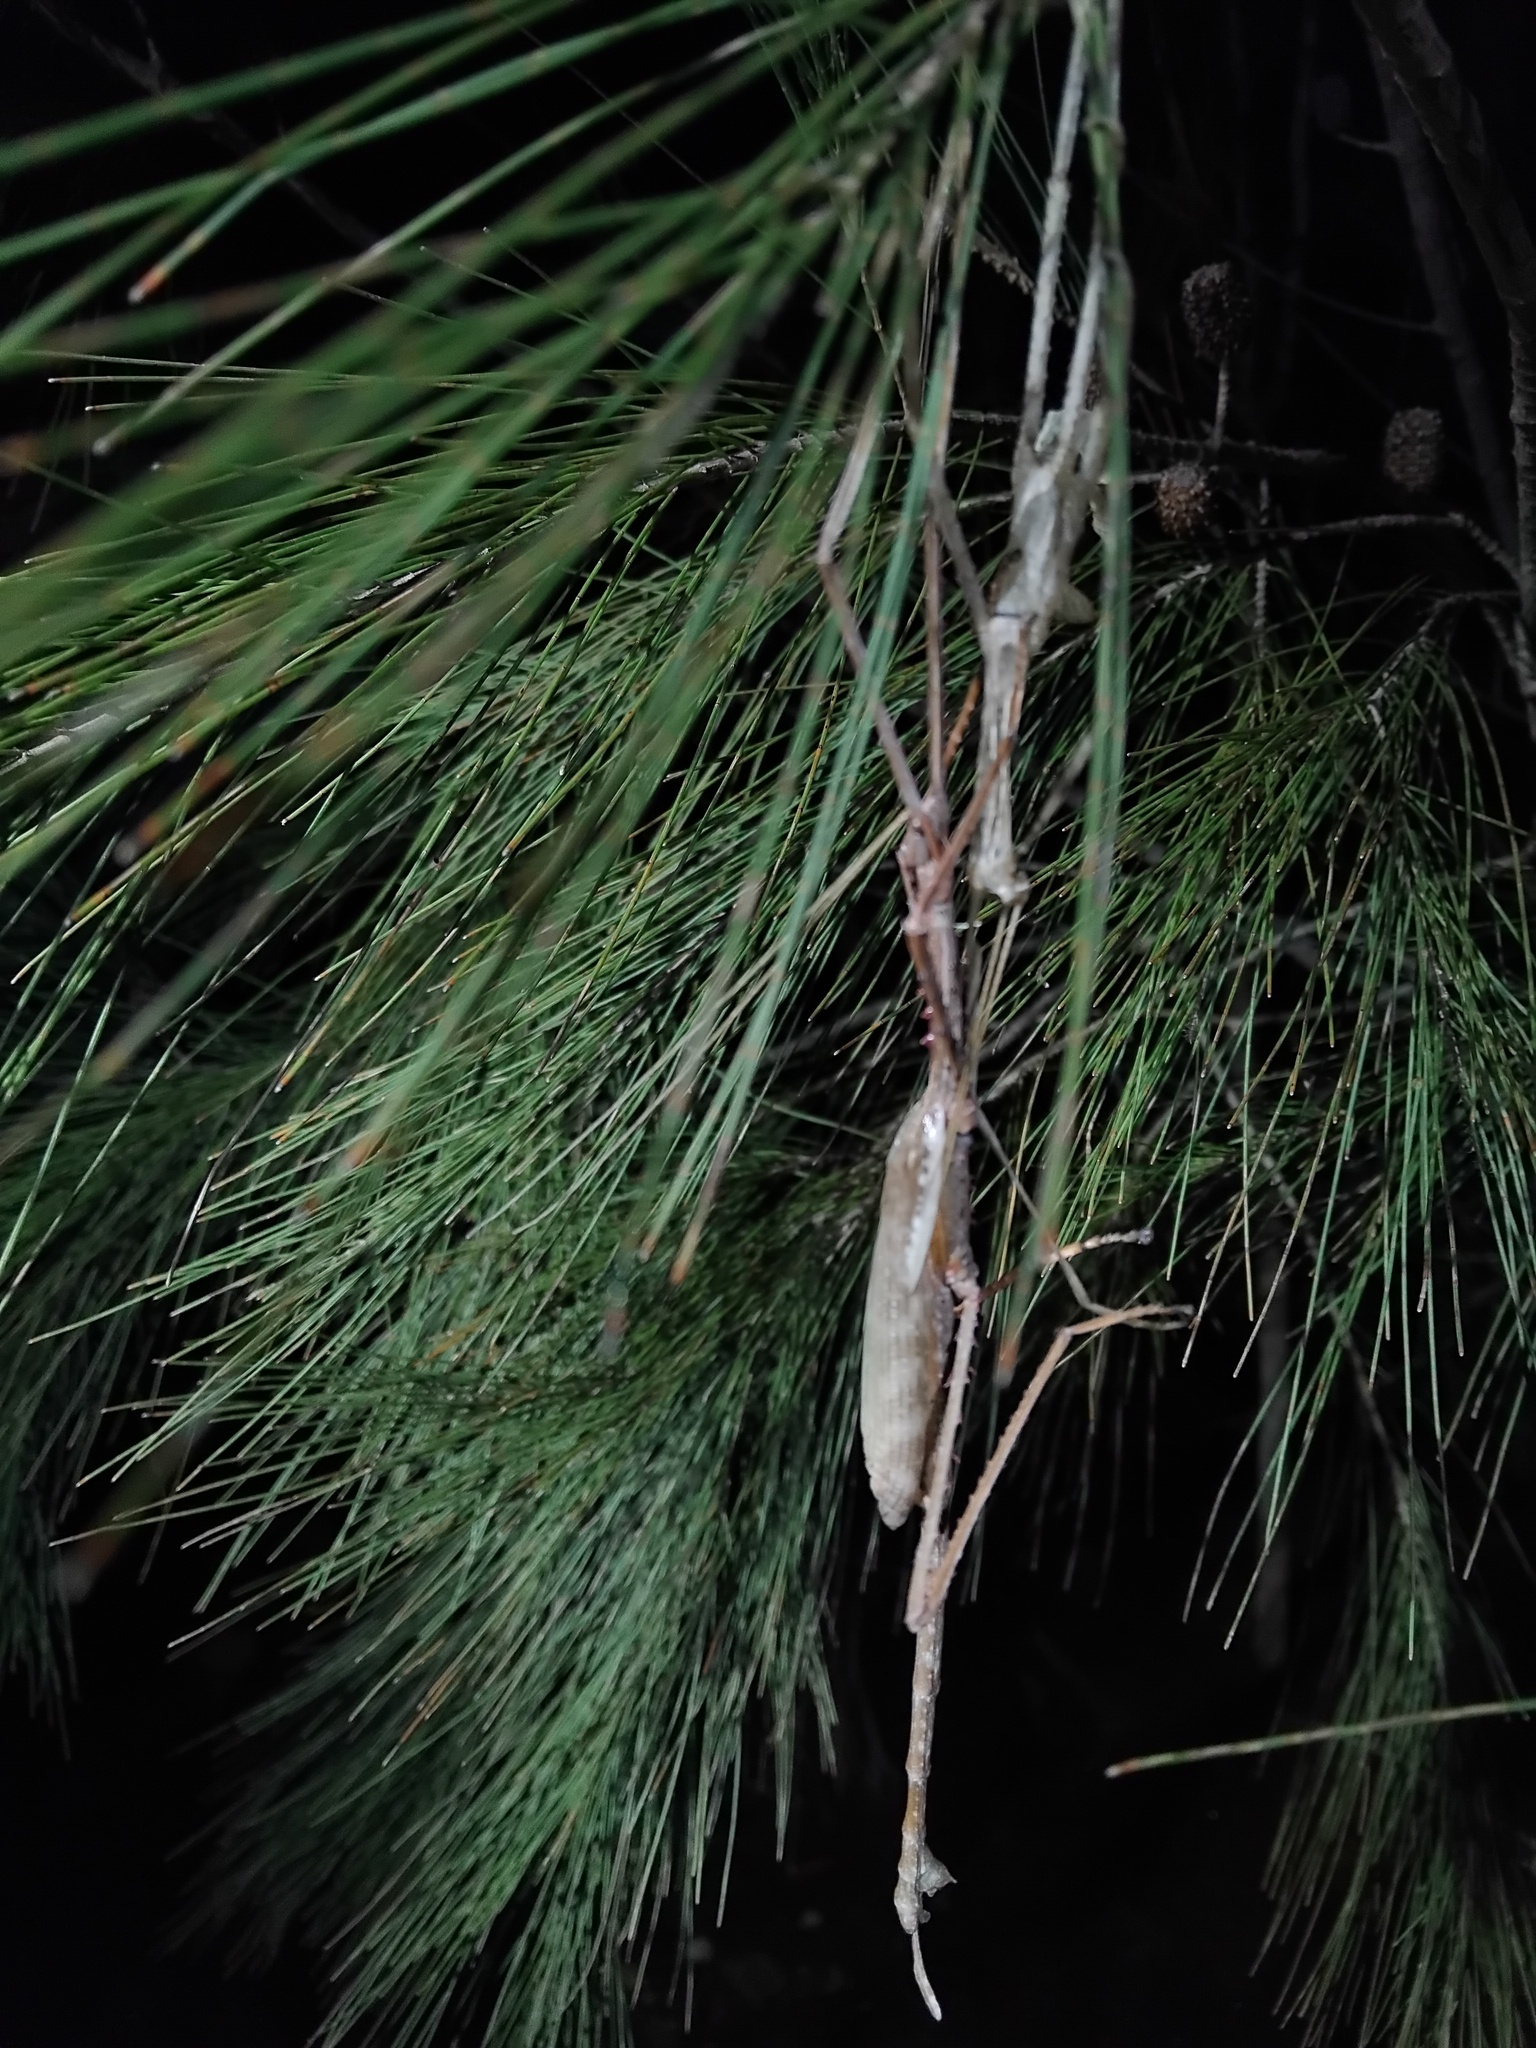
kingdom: Animalia
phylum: Arthropoda
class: Insecta
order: Phasmida
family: Phasmatidae
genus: Acrophylla
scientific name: Acrophylla titan
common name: Titan stick insect
